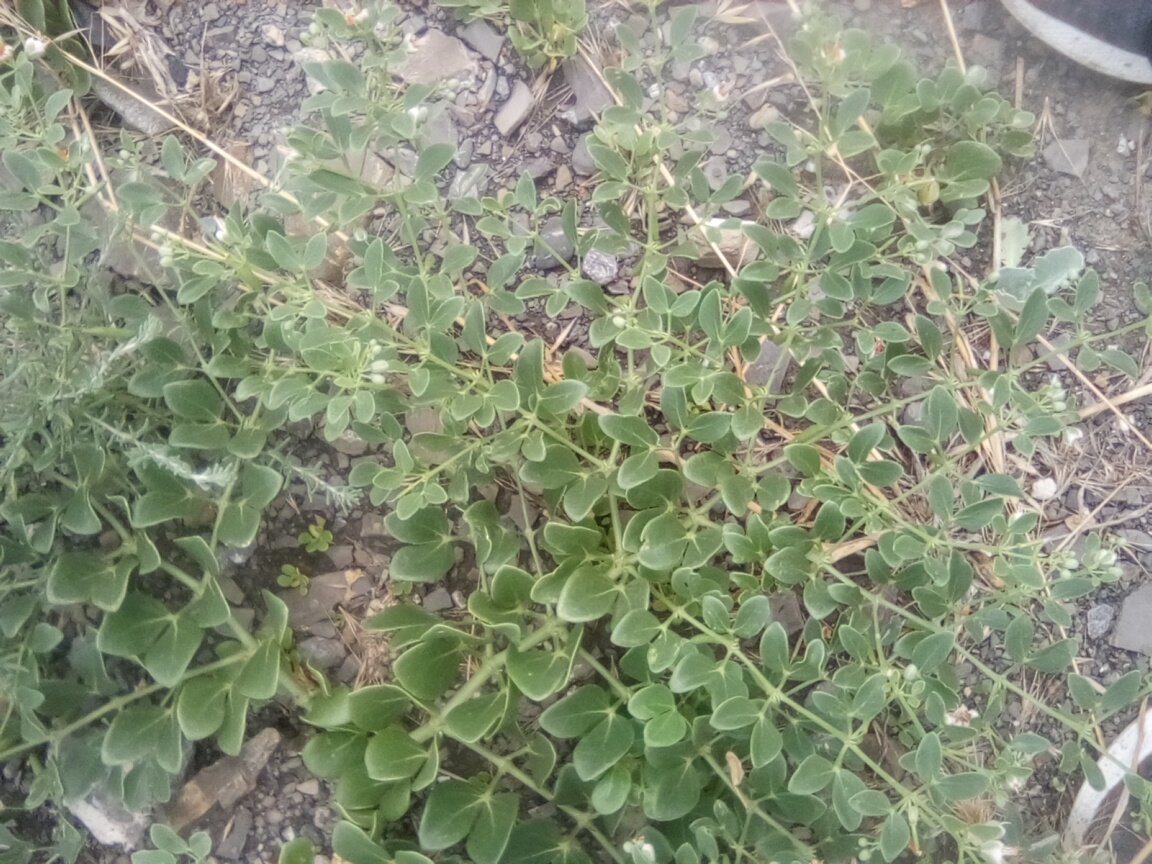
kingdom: Plantae
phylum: Tracheophyta
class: Magnoliopsida
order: Brassicales
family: Capparaceae
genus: Capparis
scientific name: Capparis spinosa
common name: Caper
